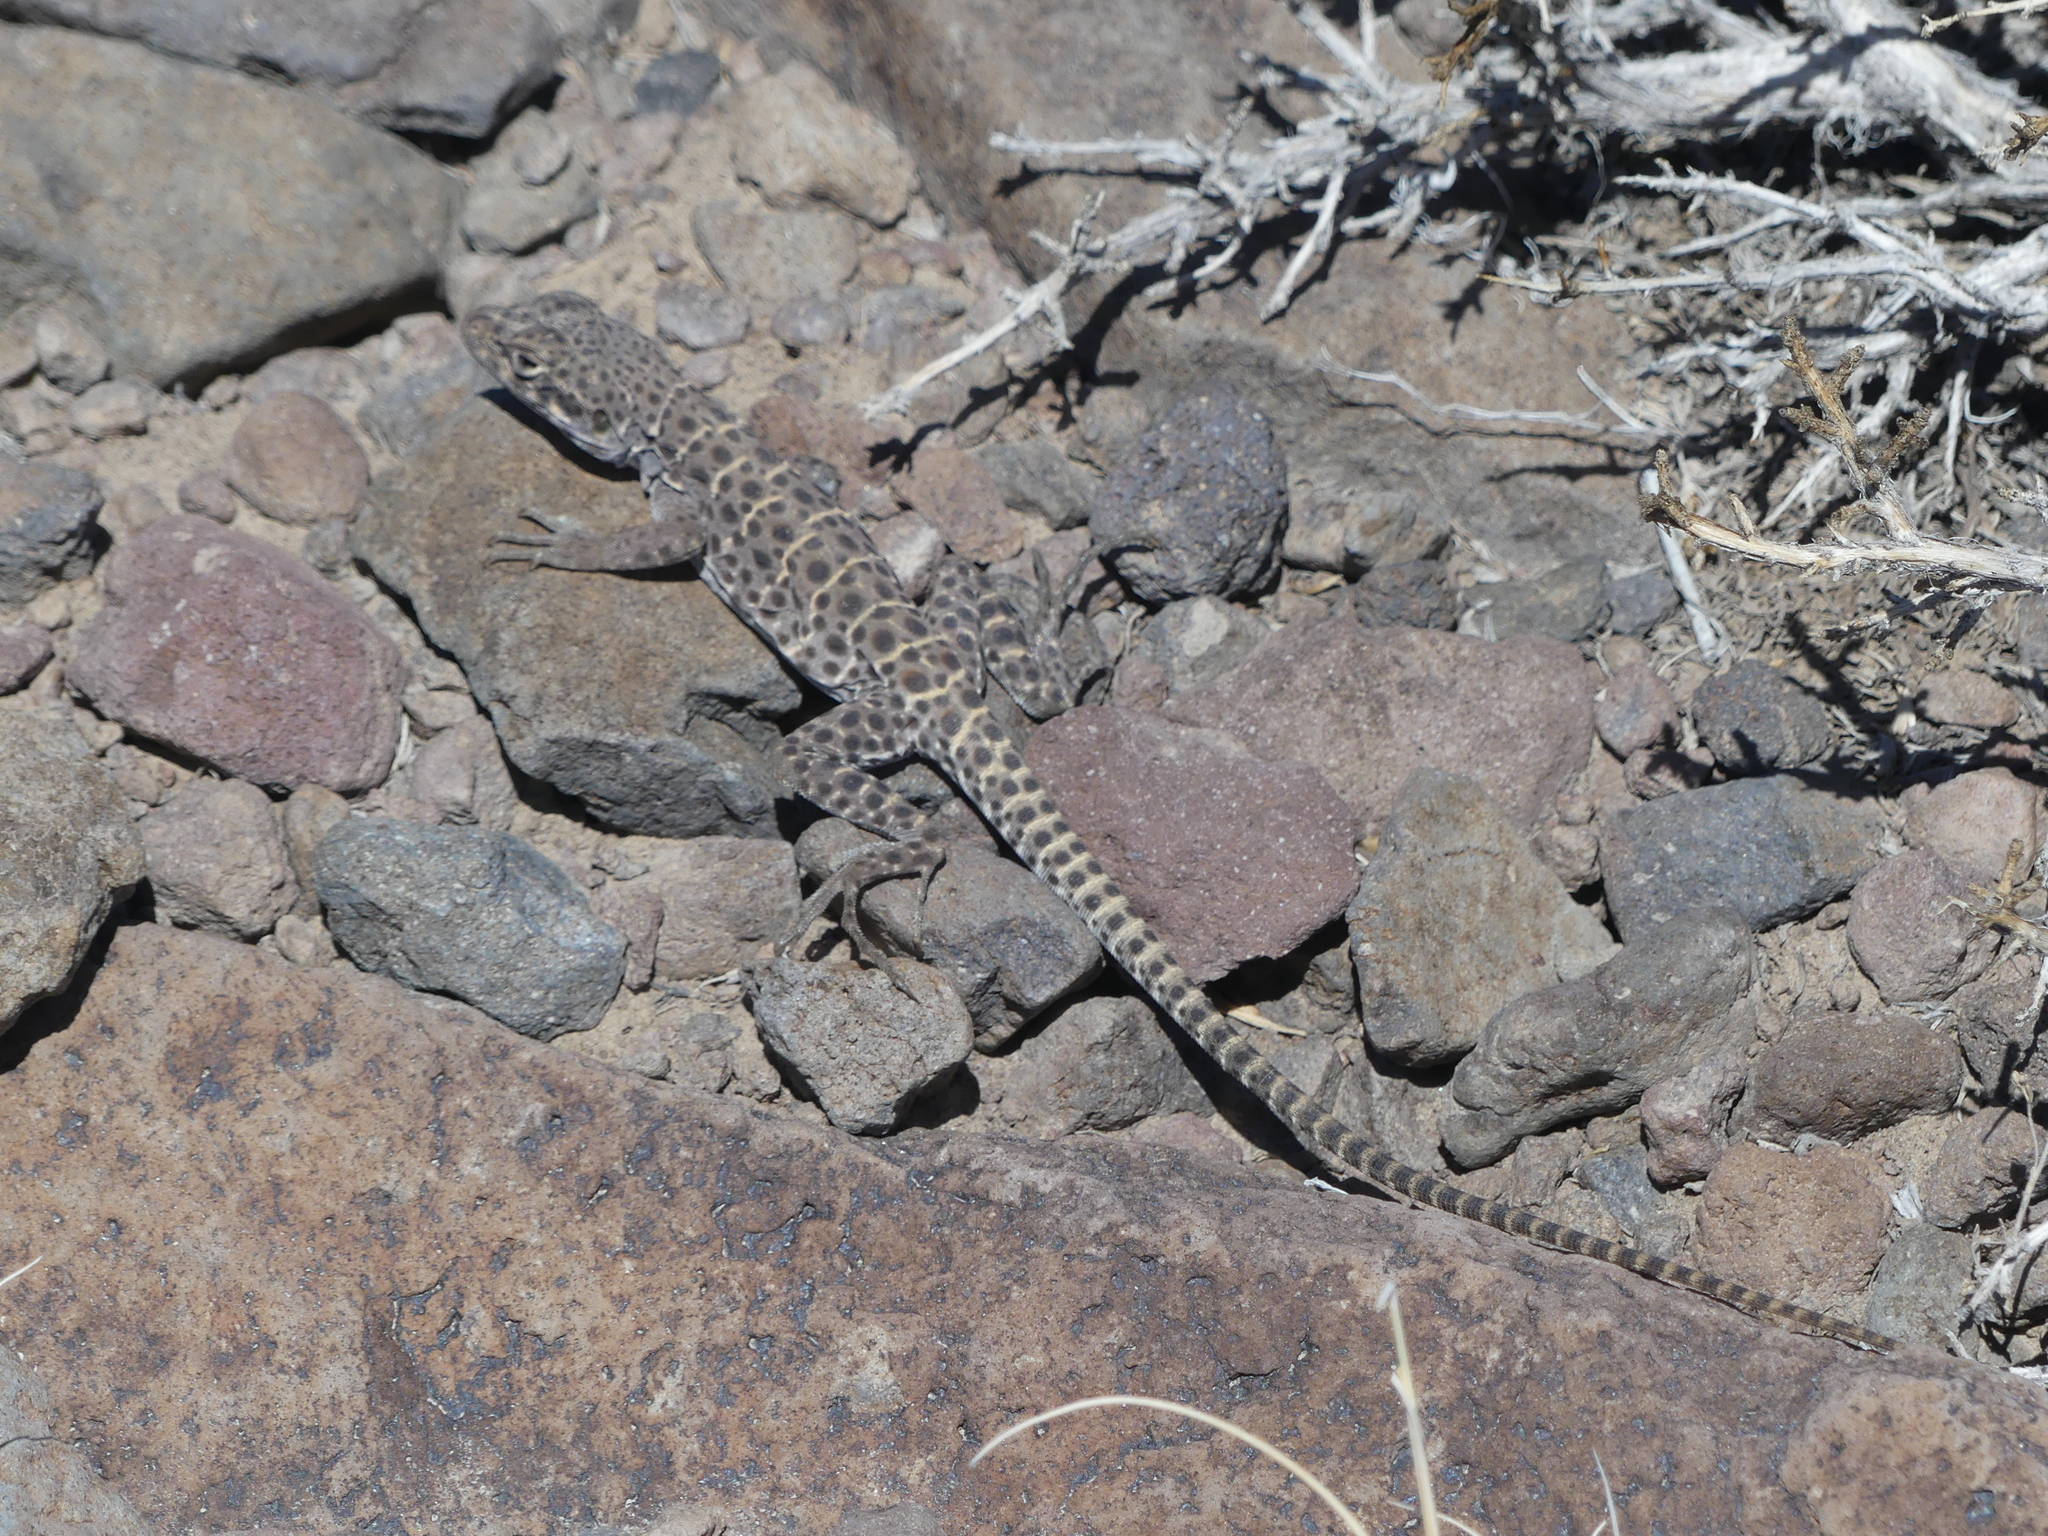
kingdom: Animalia
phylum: Chordata
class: Squamata
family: Crotaphytidae
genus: Gambelia
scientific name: Gambelia wislizenii
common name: Longnose leopard lizard
